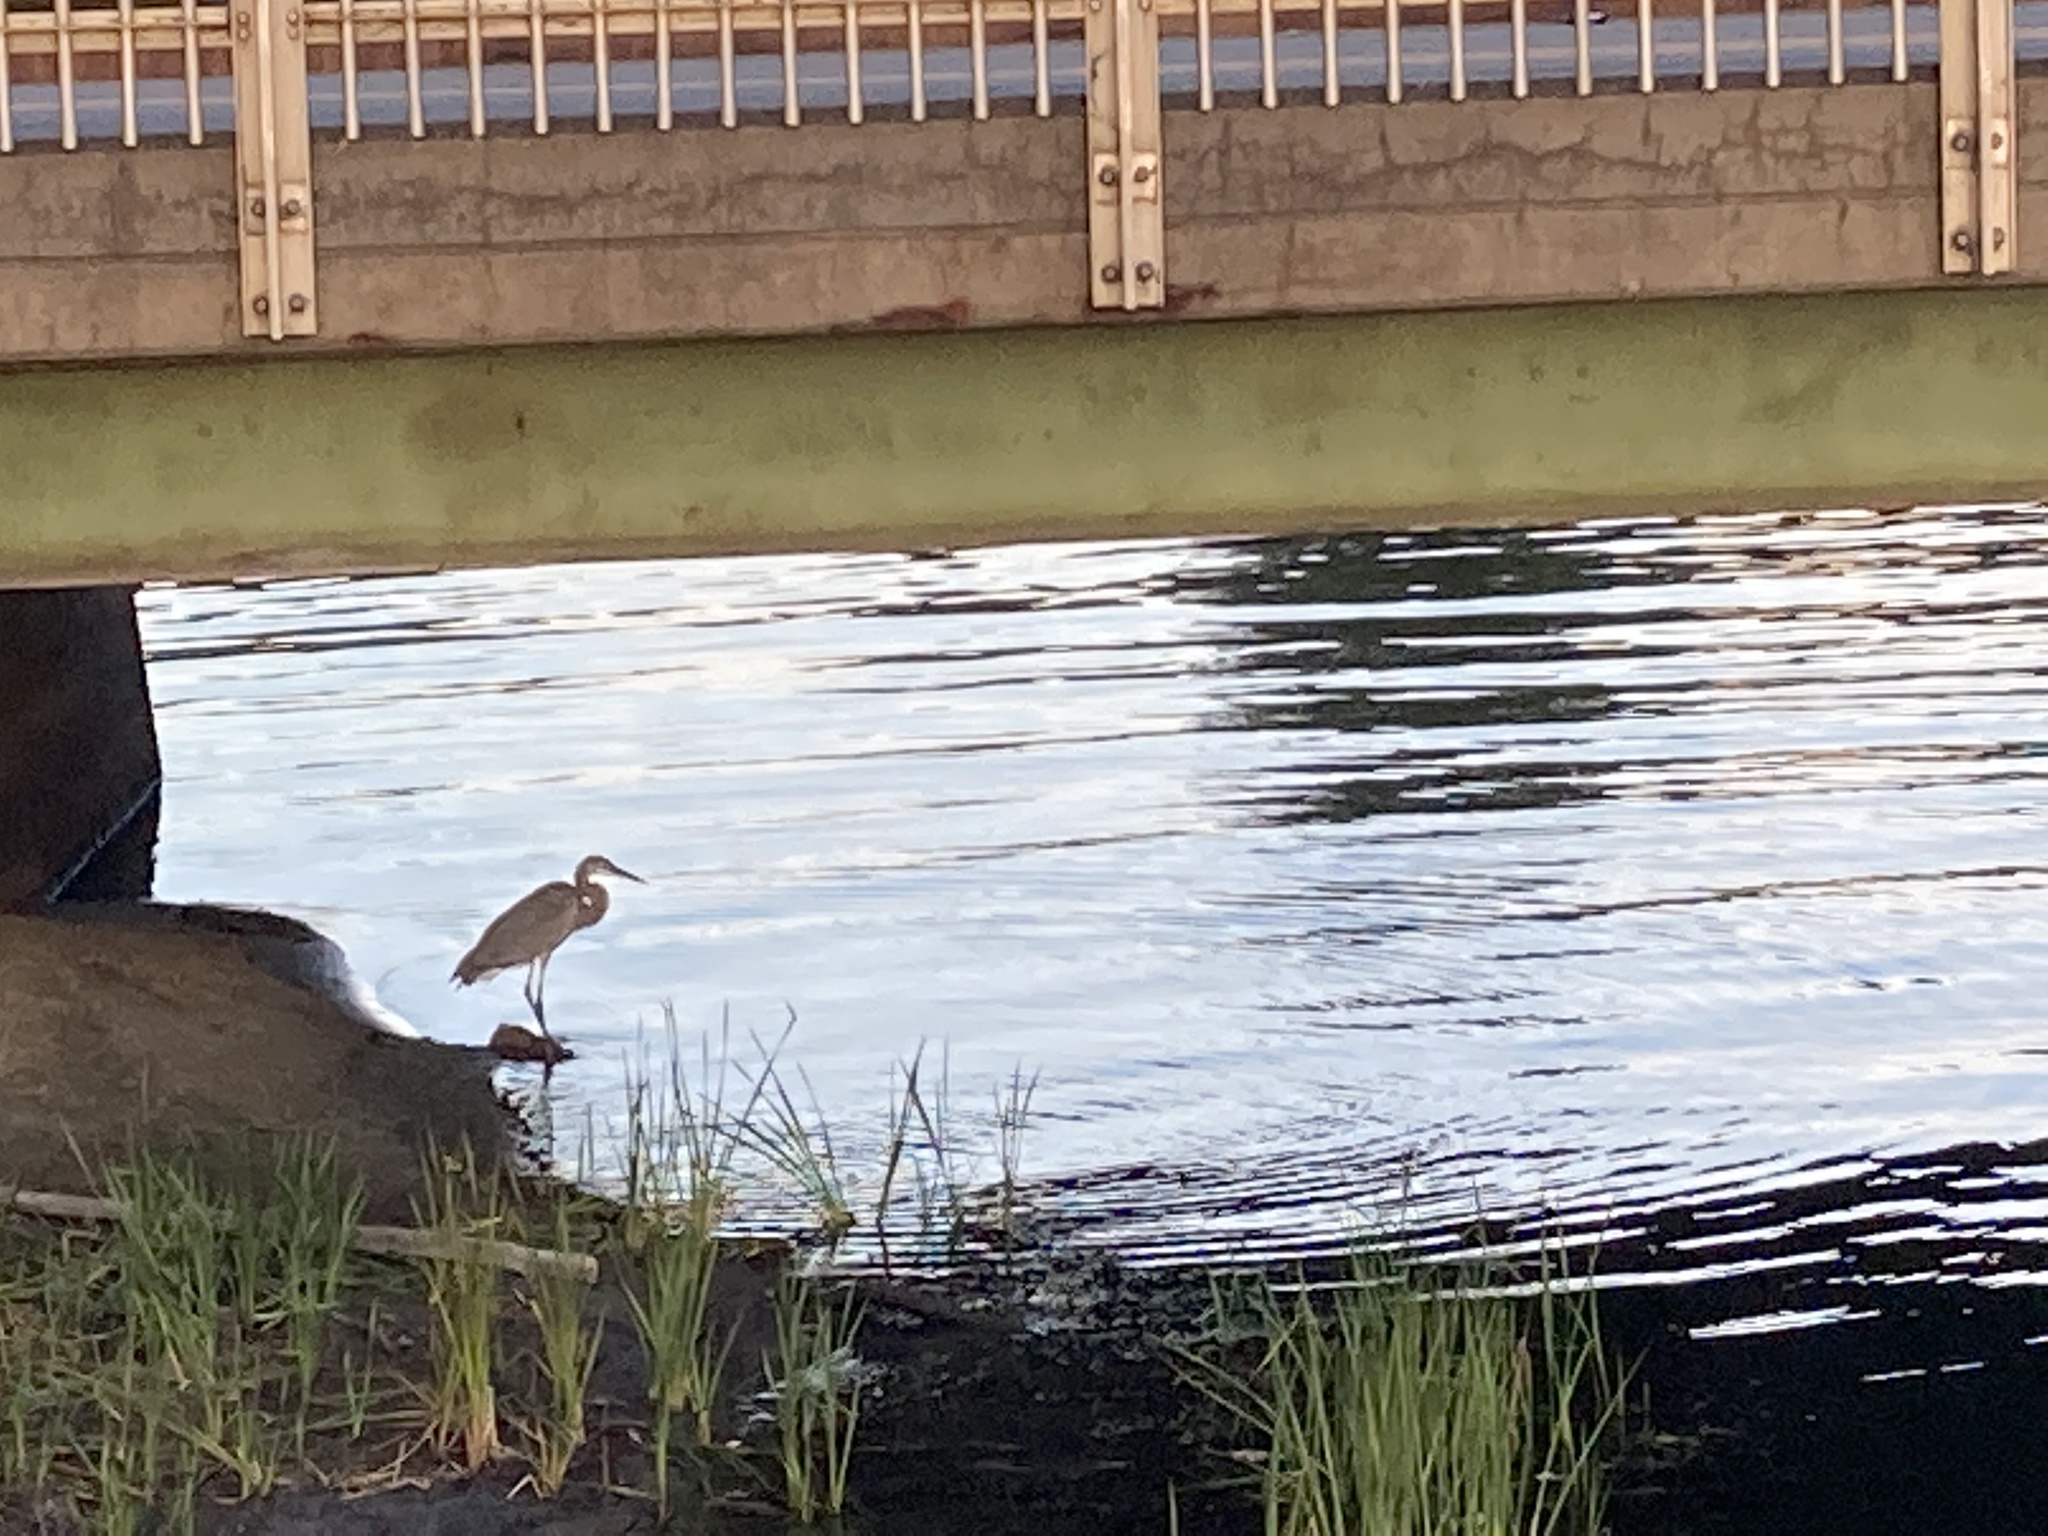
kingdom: Animalia
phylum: Chordata
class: Aves
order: Pelecaniformes
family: Ardeidae
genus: Ardea
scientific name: Ardea herodias
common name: Great blue heron
